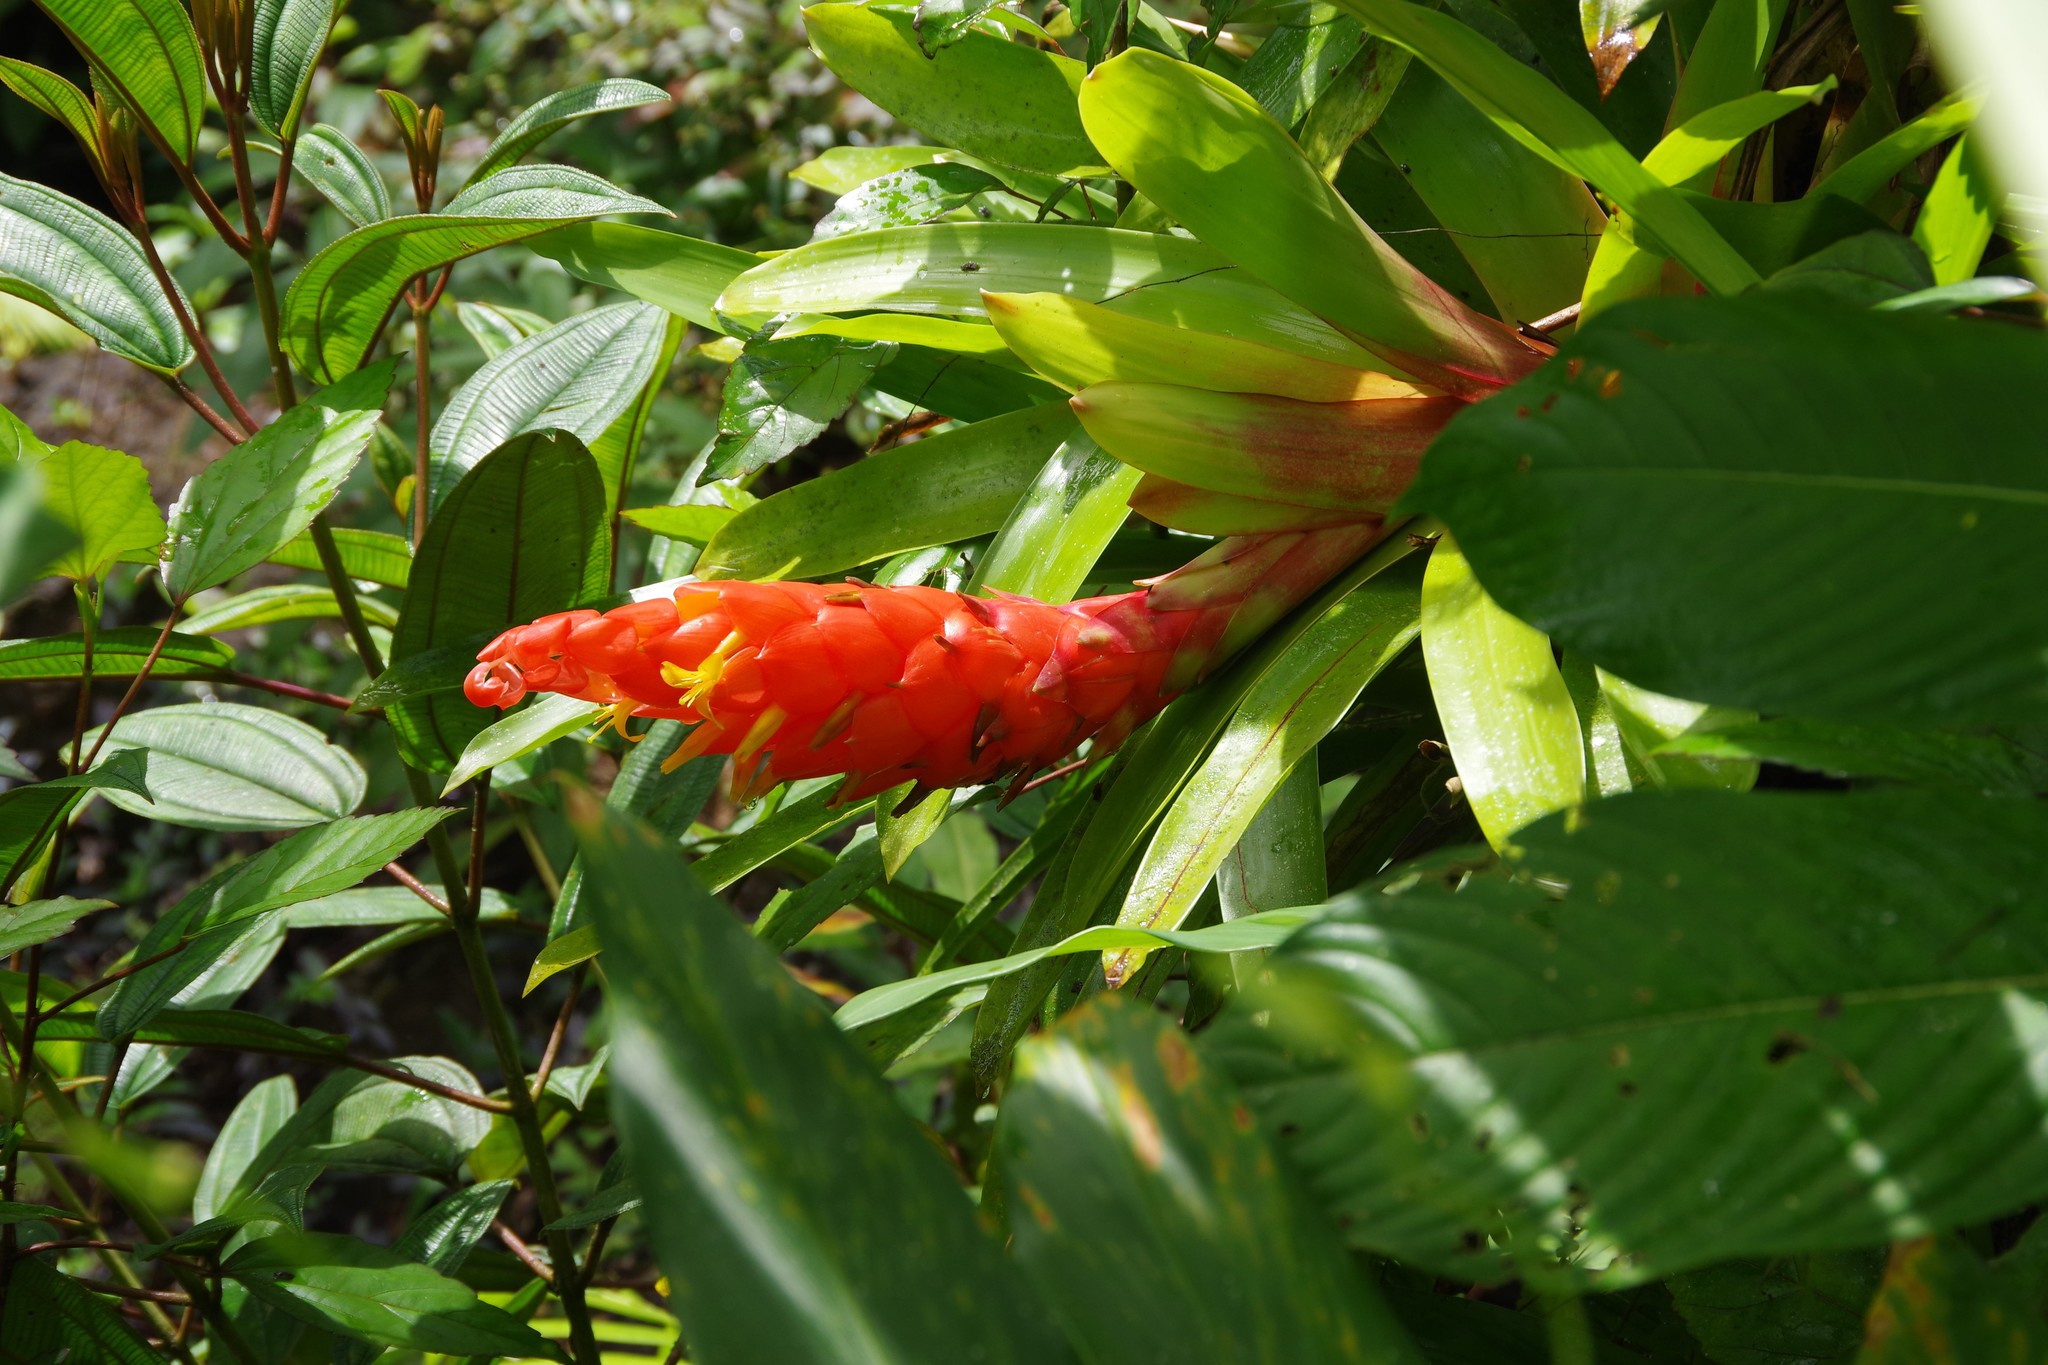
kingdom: Plantae
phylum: Tracheophyta
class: Liliopsida
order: Poales
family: Bromeliaceae
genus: Guzmania
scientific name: Guzmania berteroniana
